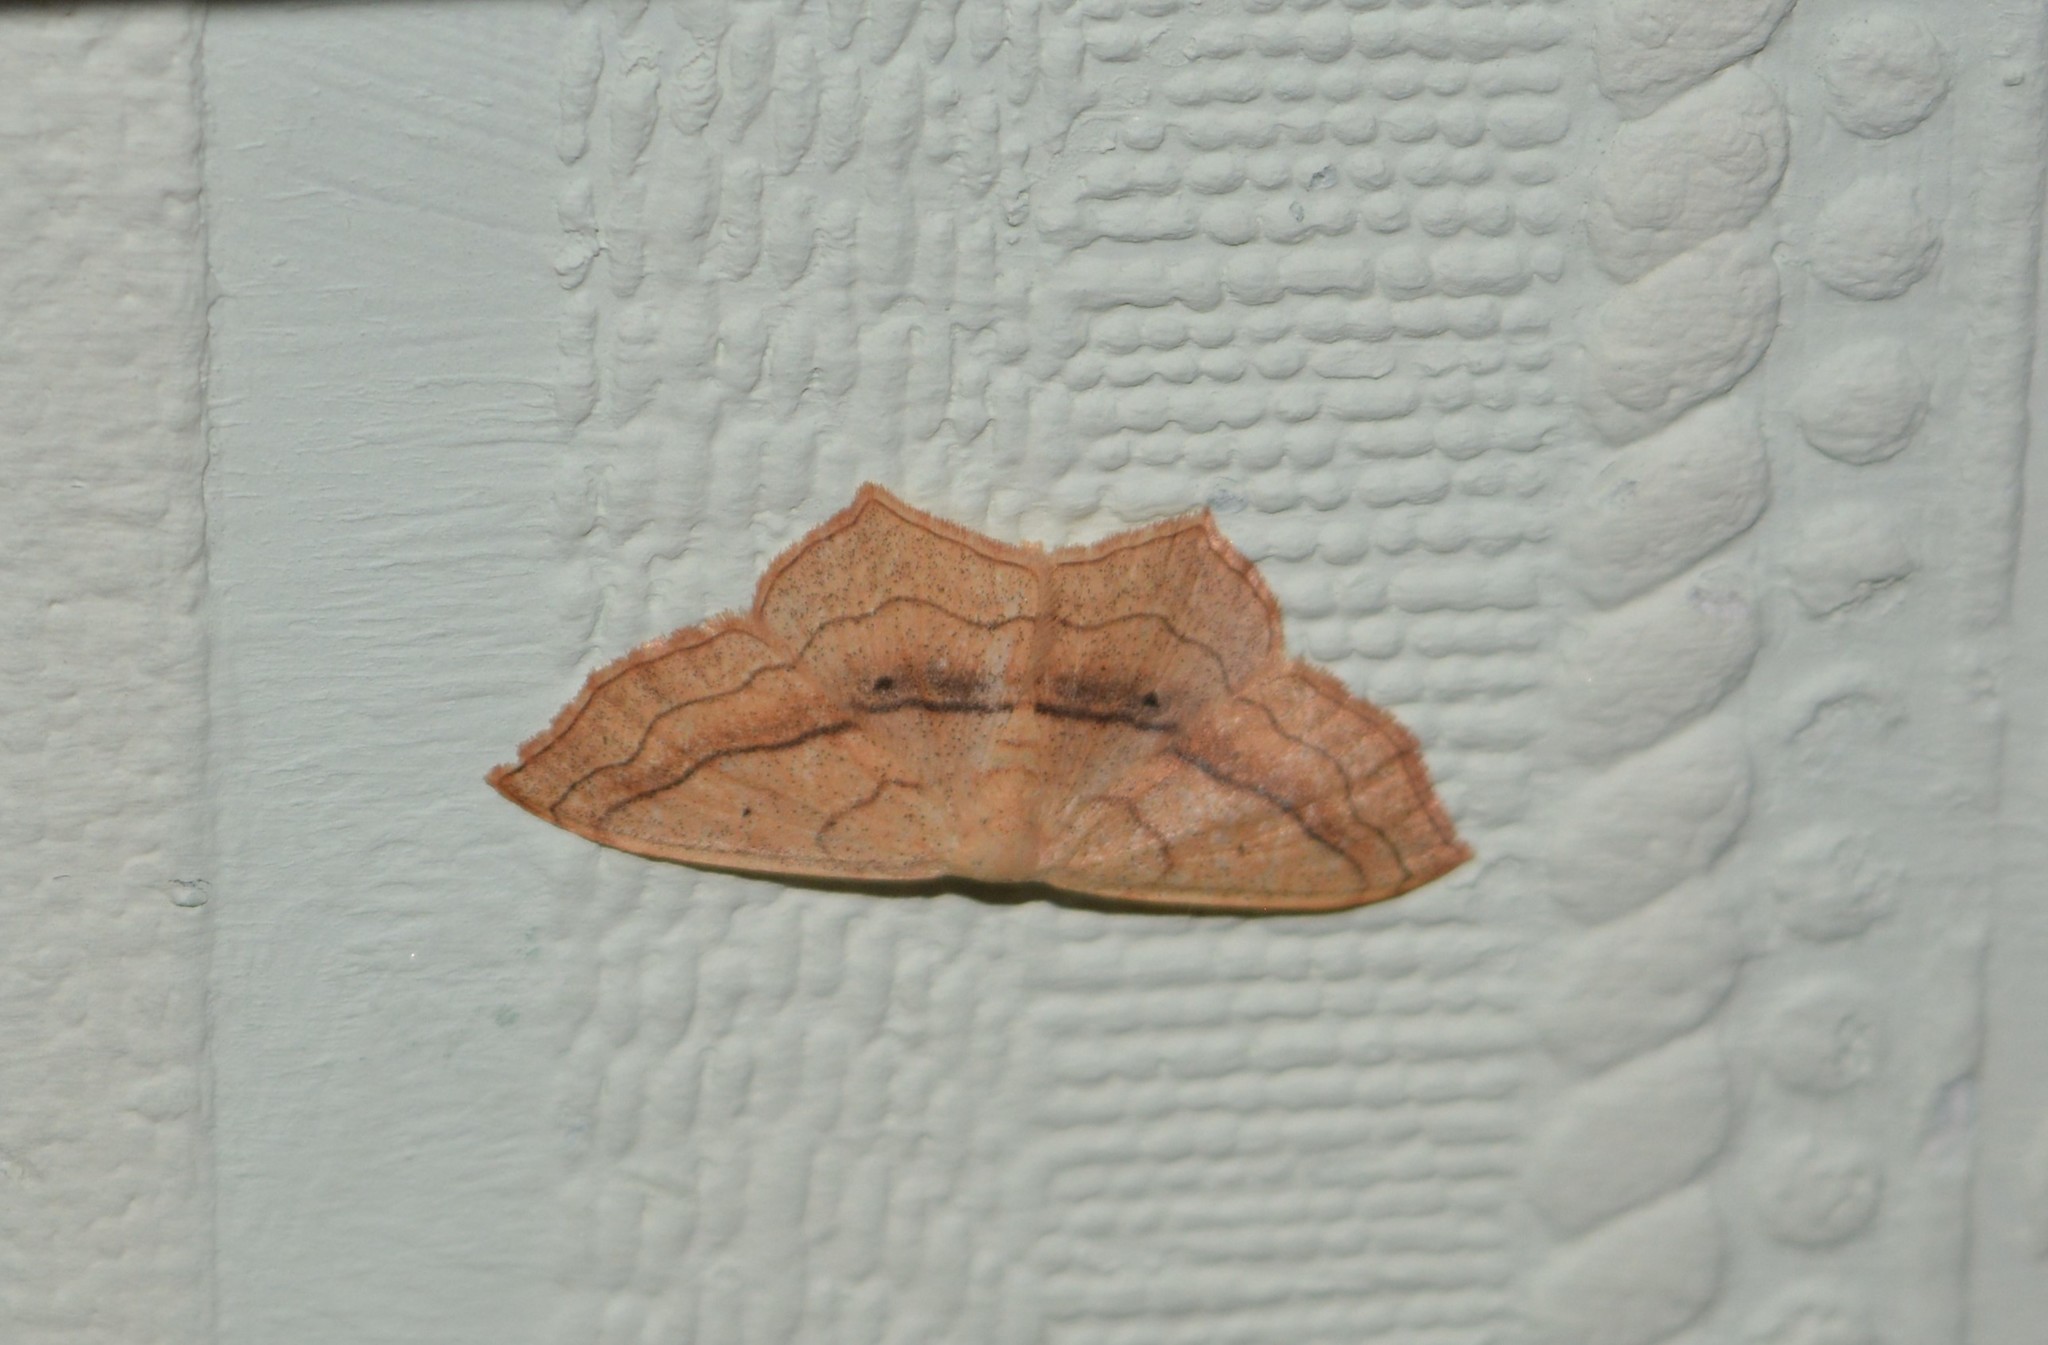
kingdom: Animalia
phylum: Arthropoda
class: Insecta
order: Lepidoptera
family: Geometridae
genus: Scopula
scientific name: Scopula imitaria
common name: Small blood-vein
